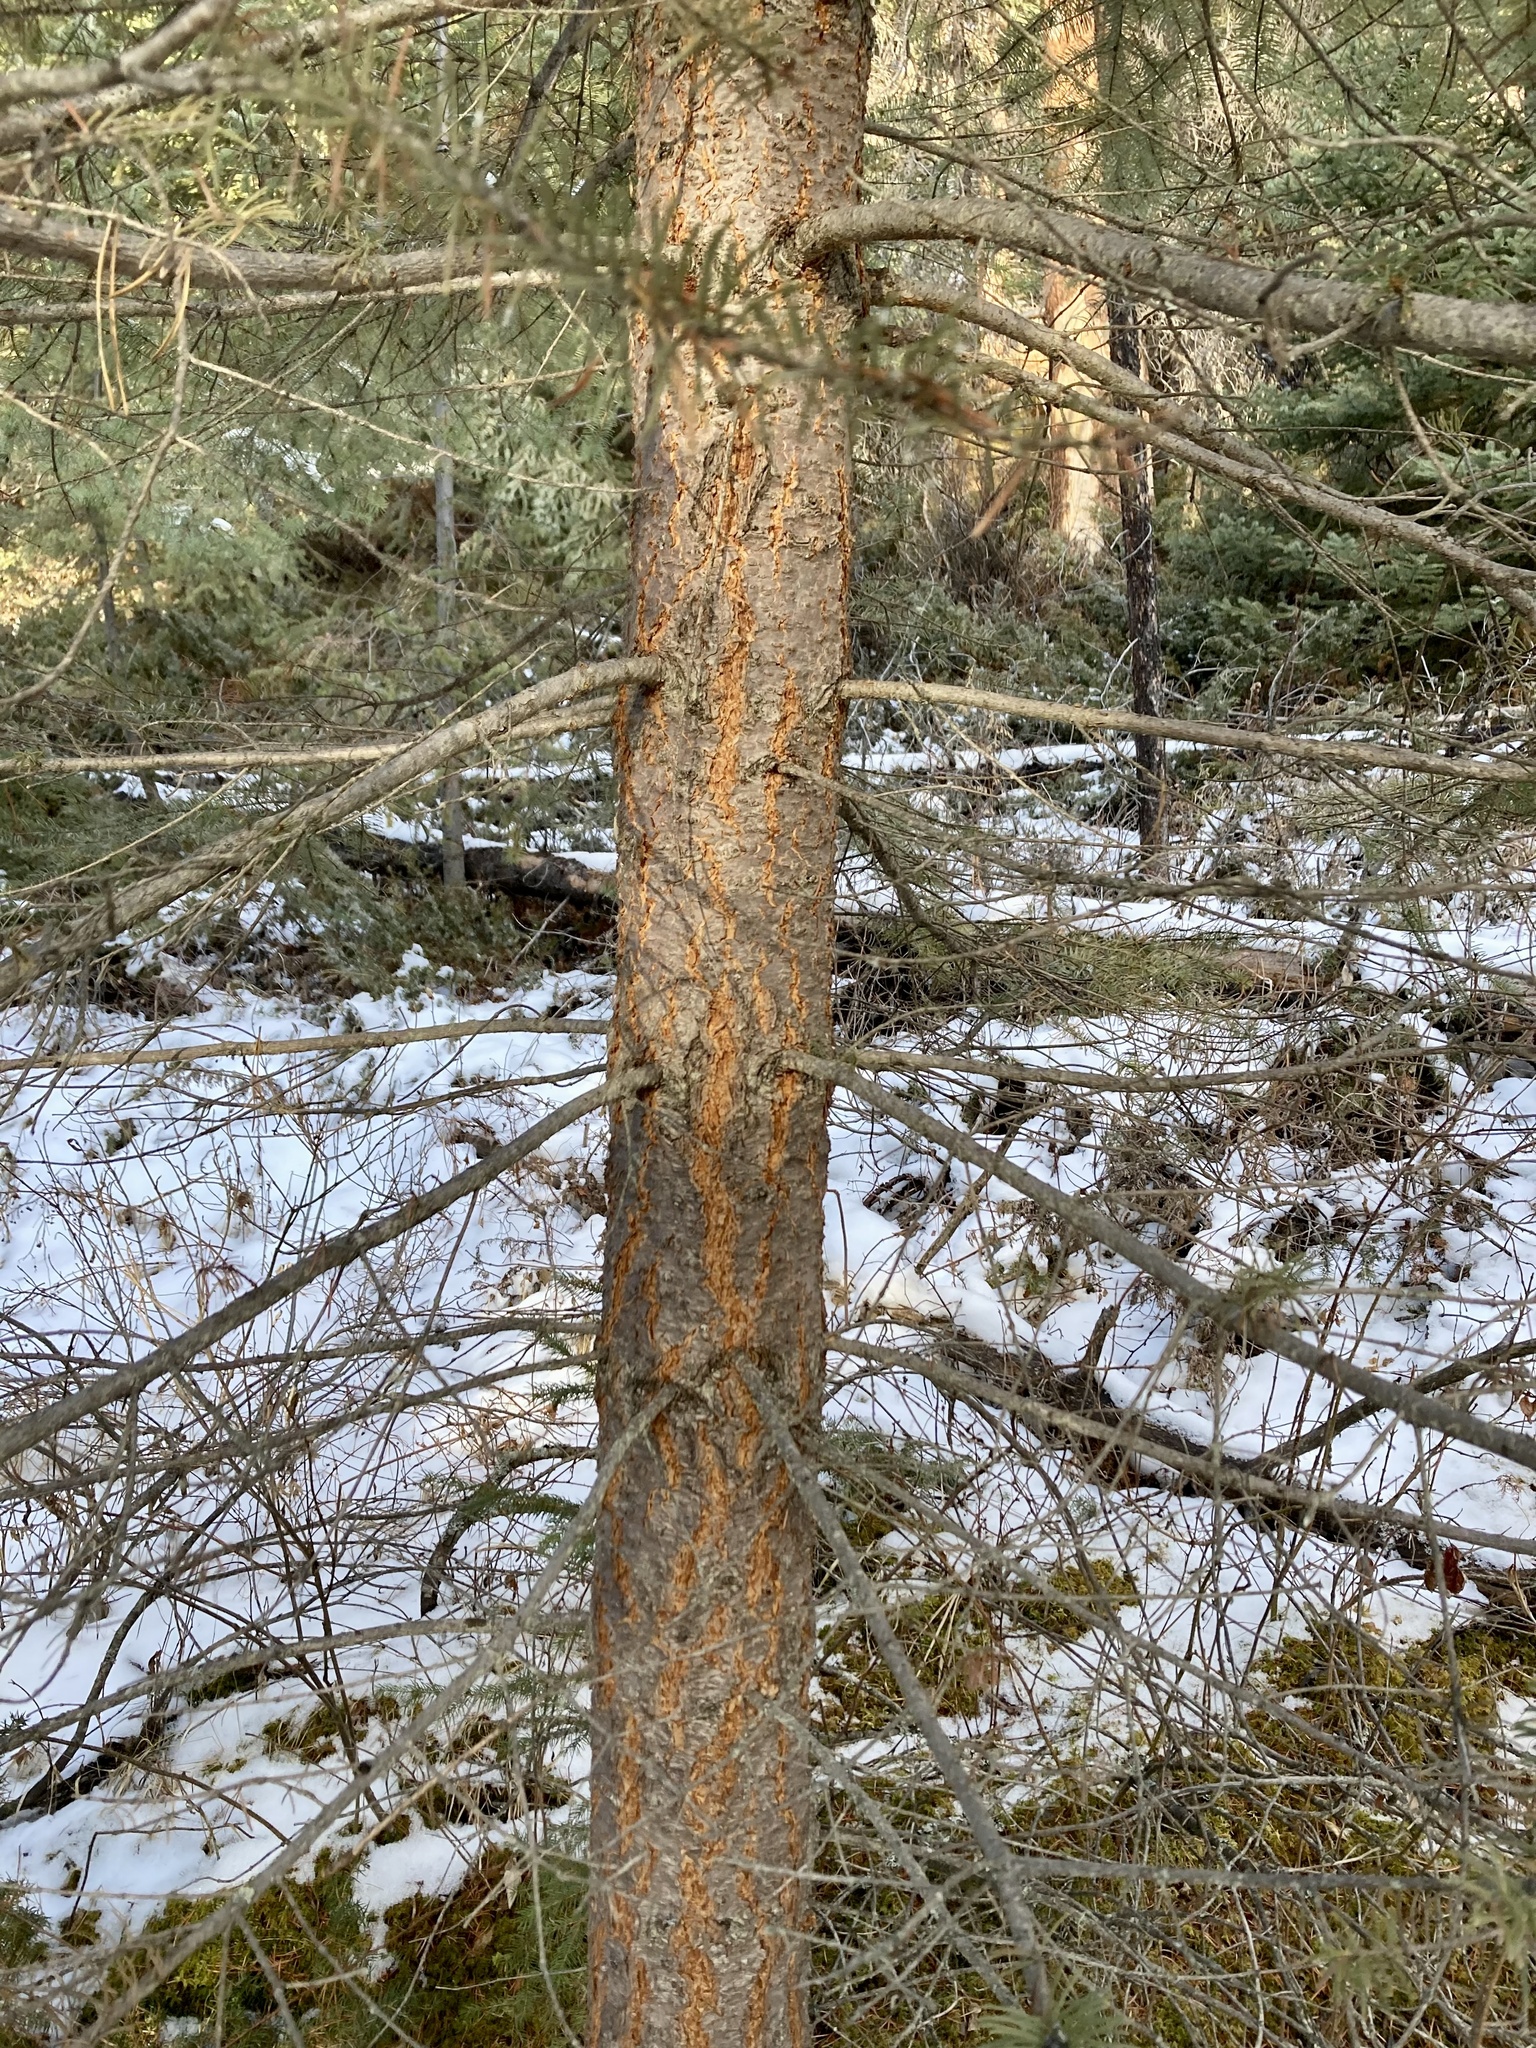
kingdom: Plantae
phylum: Tracheophyta
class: Pinopsida
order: Pinales
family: Pinaceae
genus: Pseudotsuga
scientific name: Pseudotsuga menziesii
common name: Douglas fir
